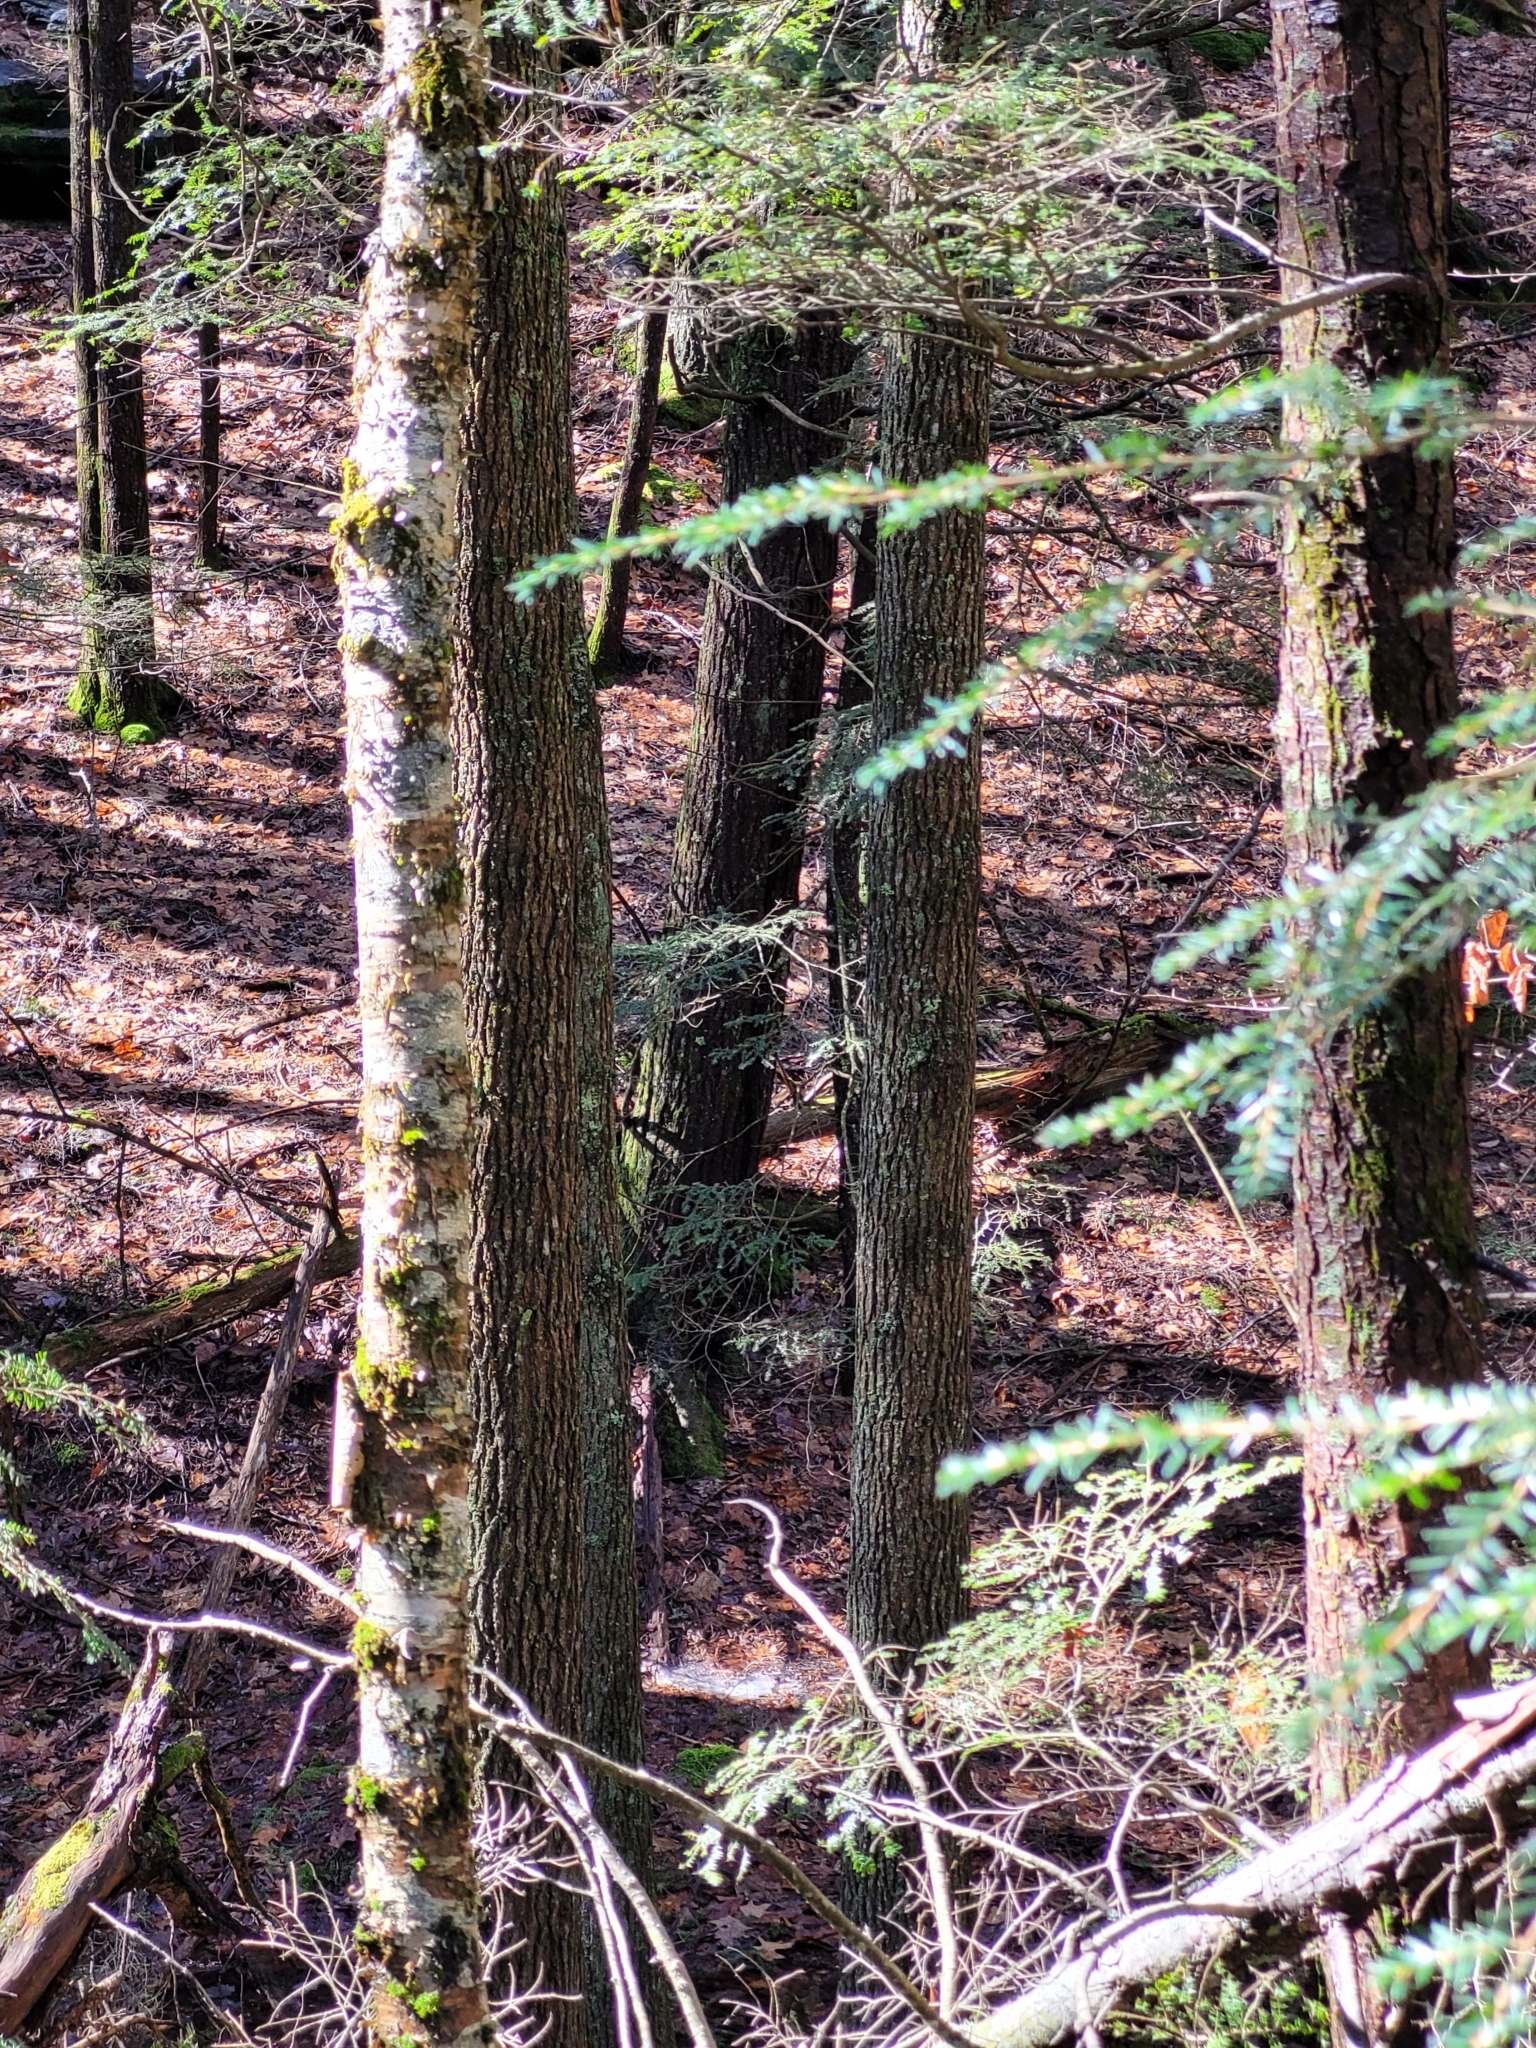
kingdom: Plantae
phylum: Tracheophyta
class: Magnoliopsida
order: Cornales
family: Nyssaceae
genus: Nyssa
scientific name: Nyssa sylvatica
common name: Black tupelo
